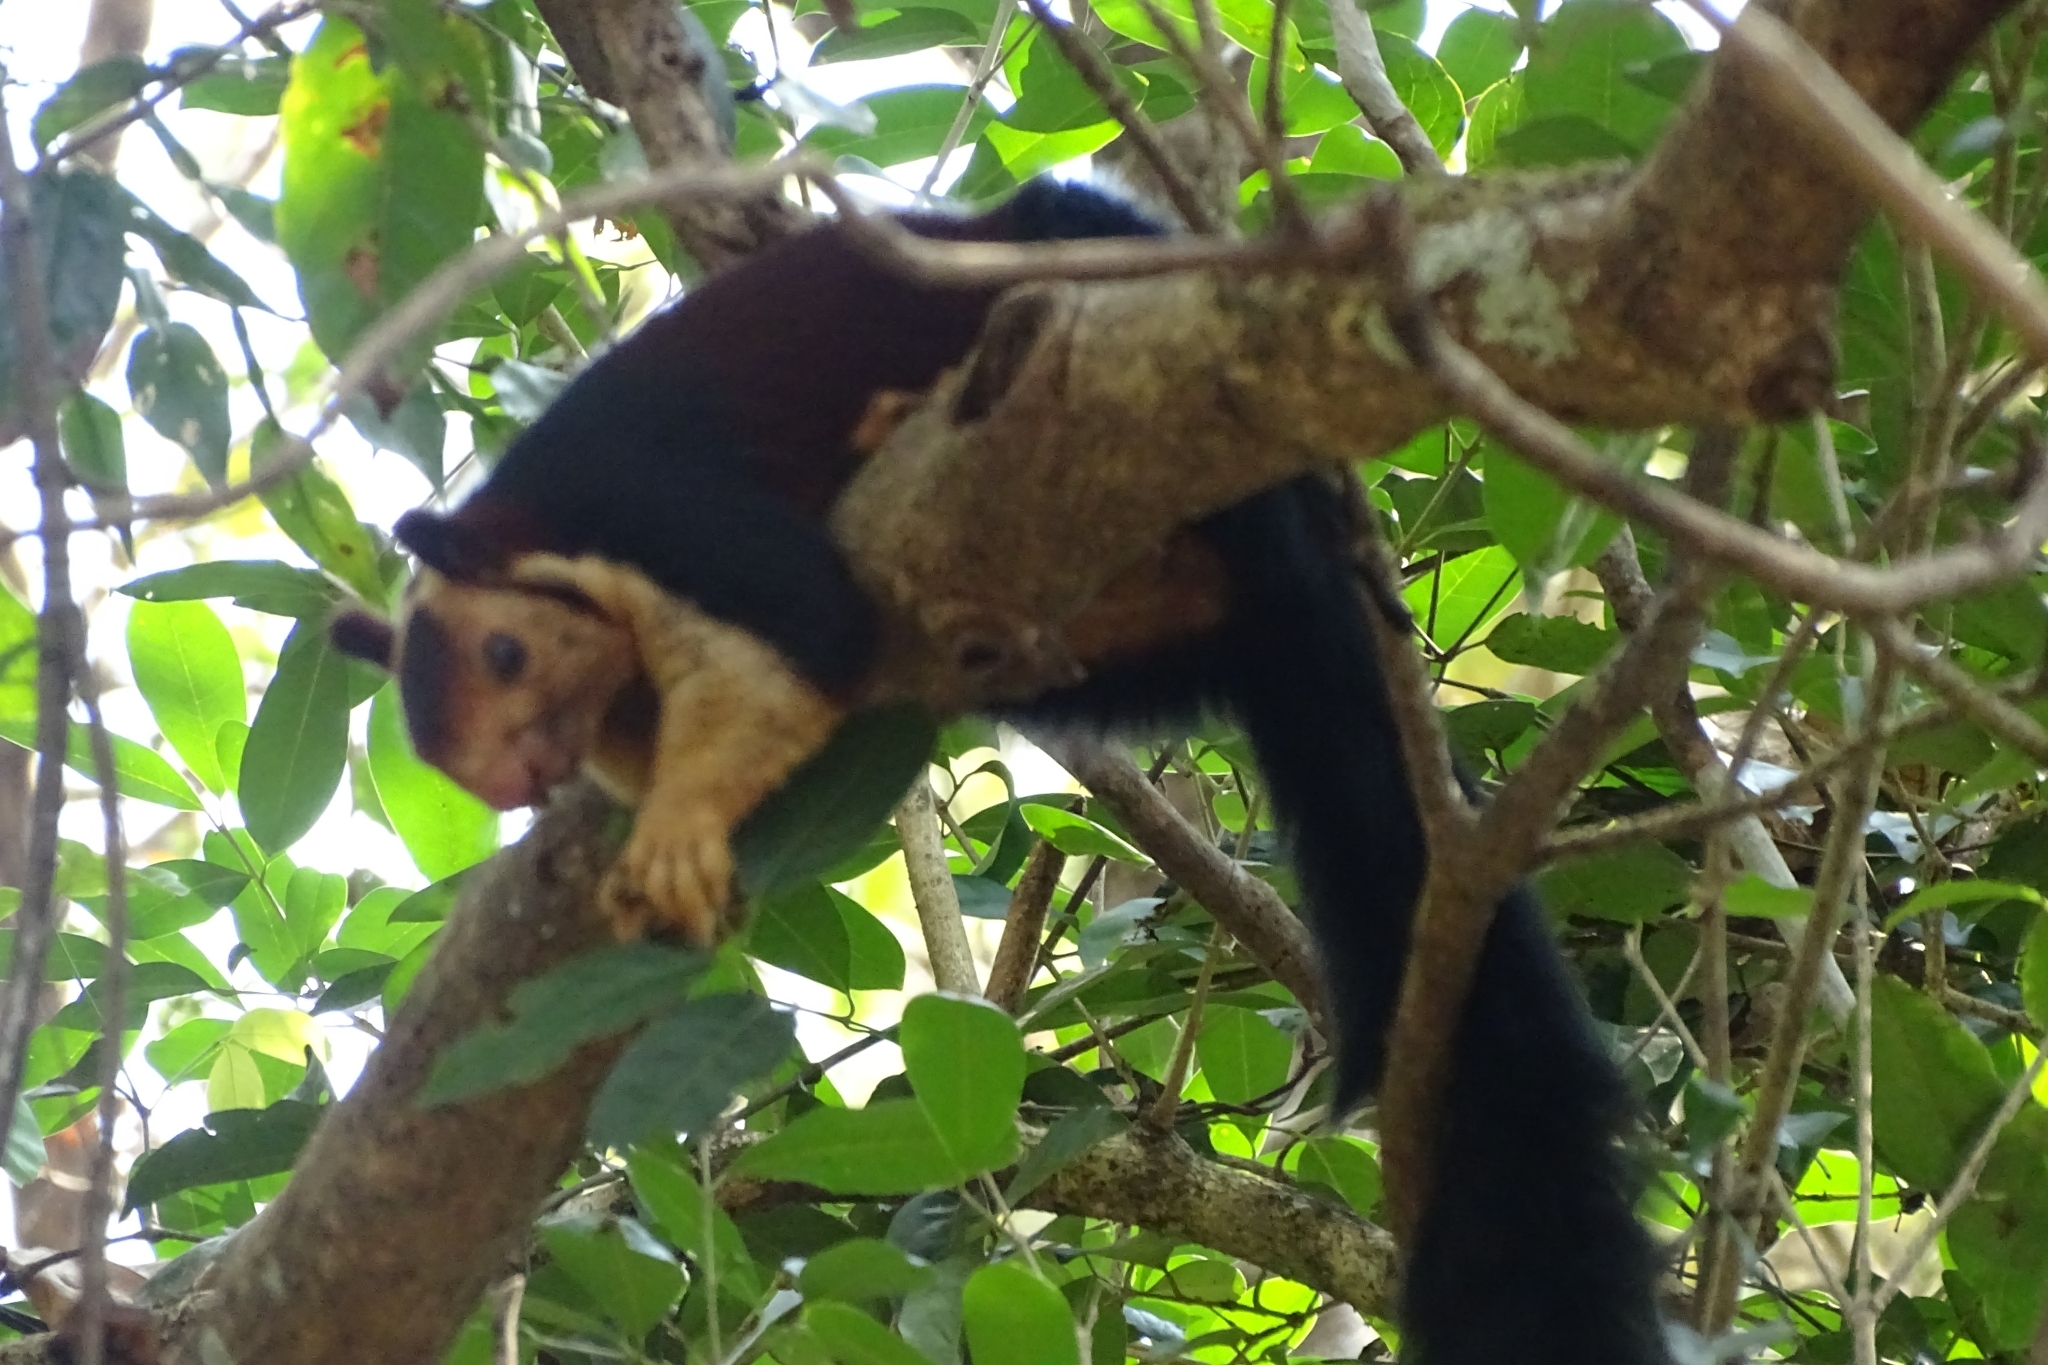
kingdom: Animalia
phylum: Chordata
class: Mammalia
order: Rodentia
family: Sciuridae
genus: Ratufa
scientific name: Ratufa indica
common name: Indian giant squirrel
